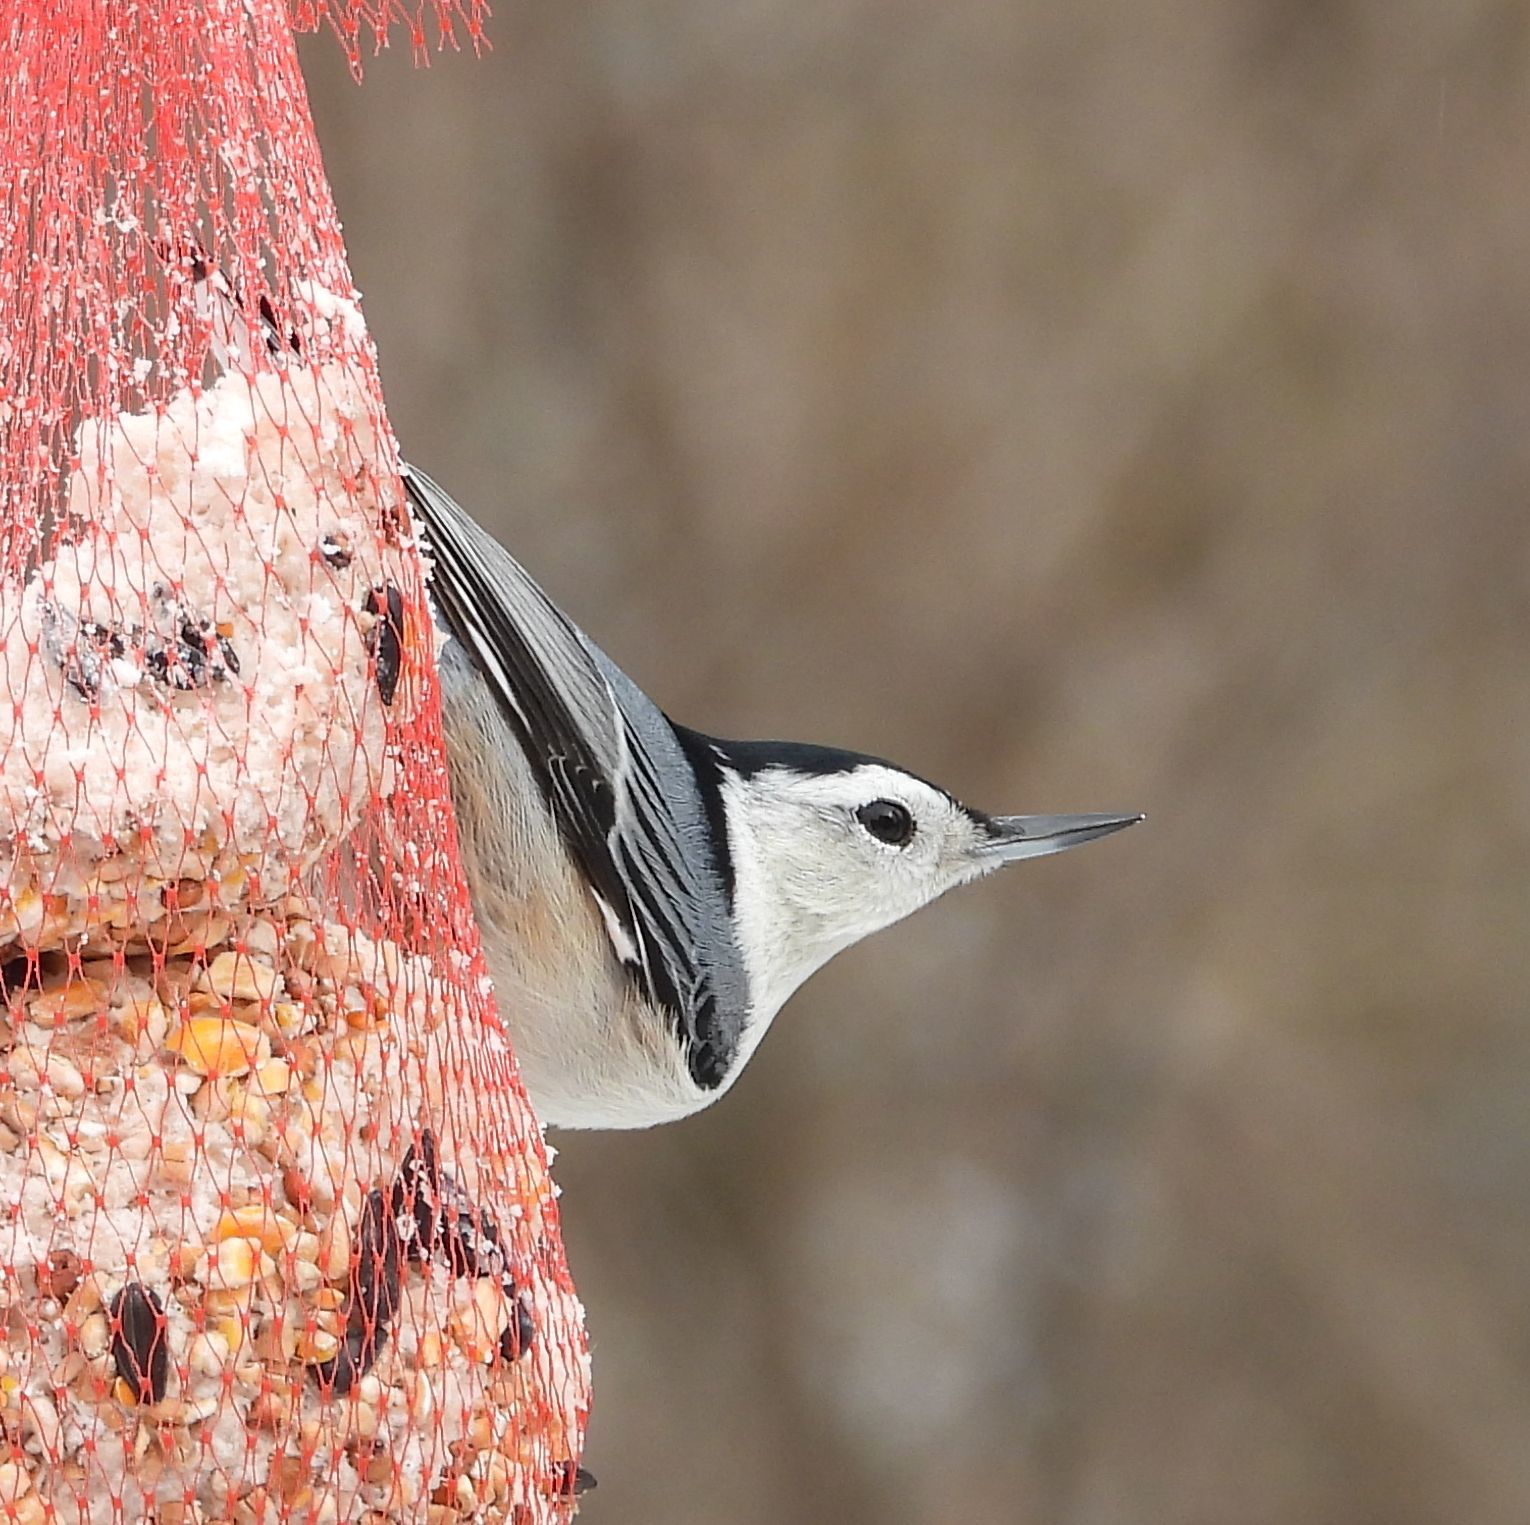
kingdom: Animalia
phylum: Chordata
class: Aves
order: Passeriformes
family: Sittidae
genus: Sitta
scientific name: Sitta carolinensis
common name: White-breasted nuthatch
